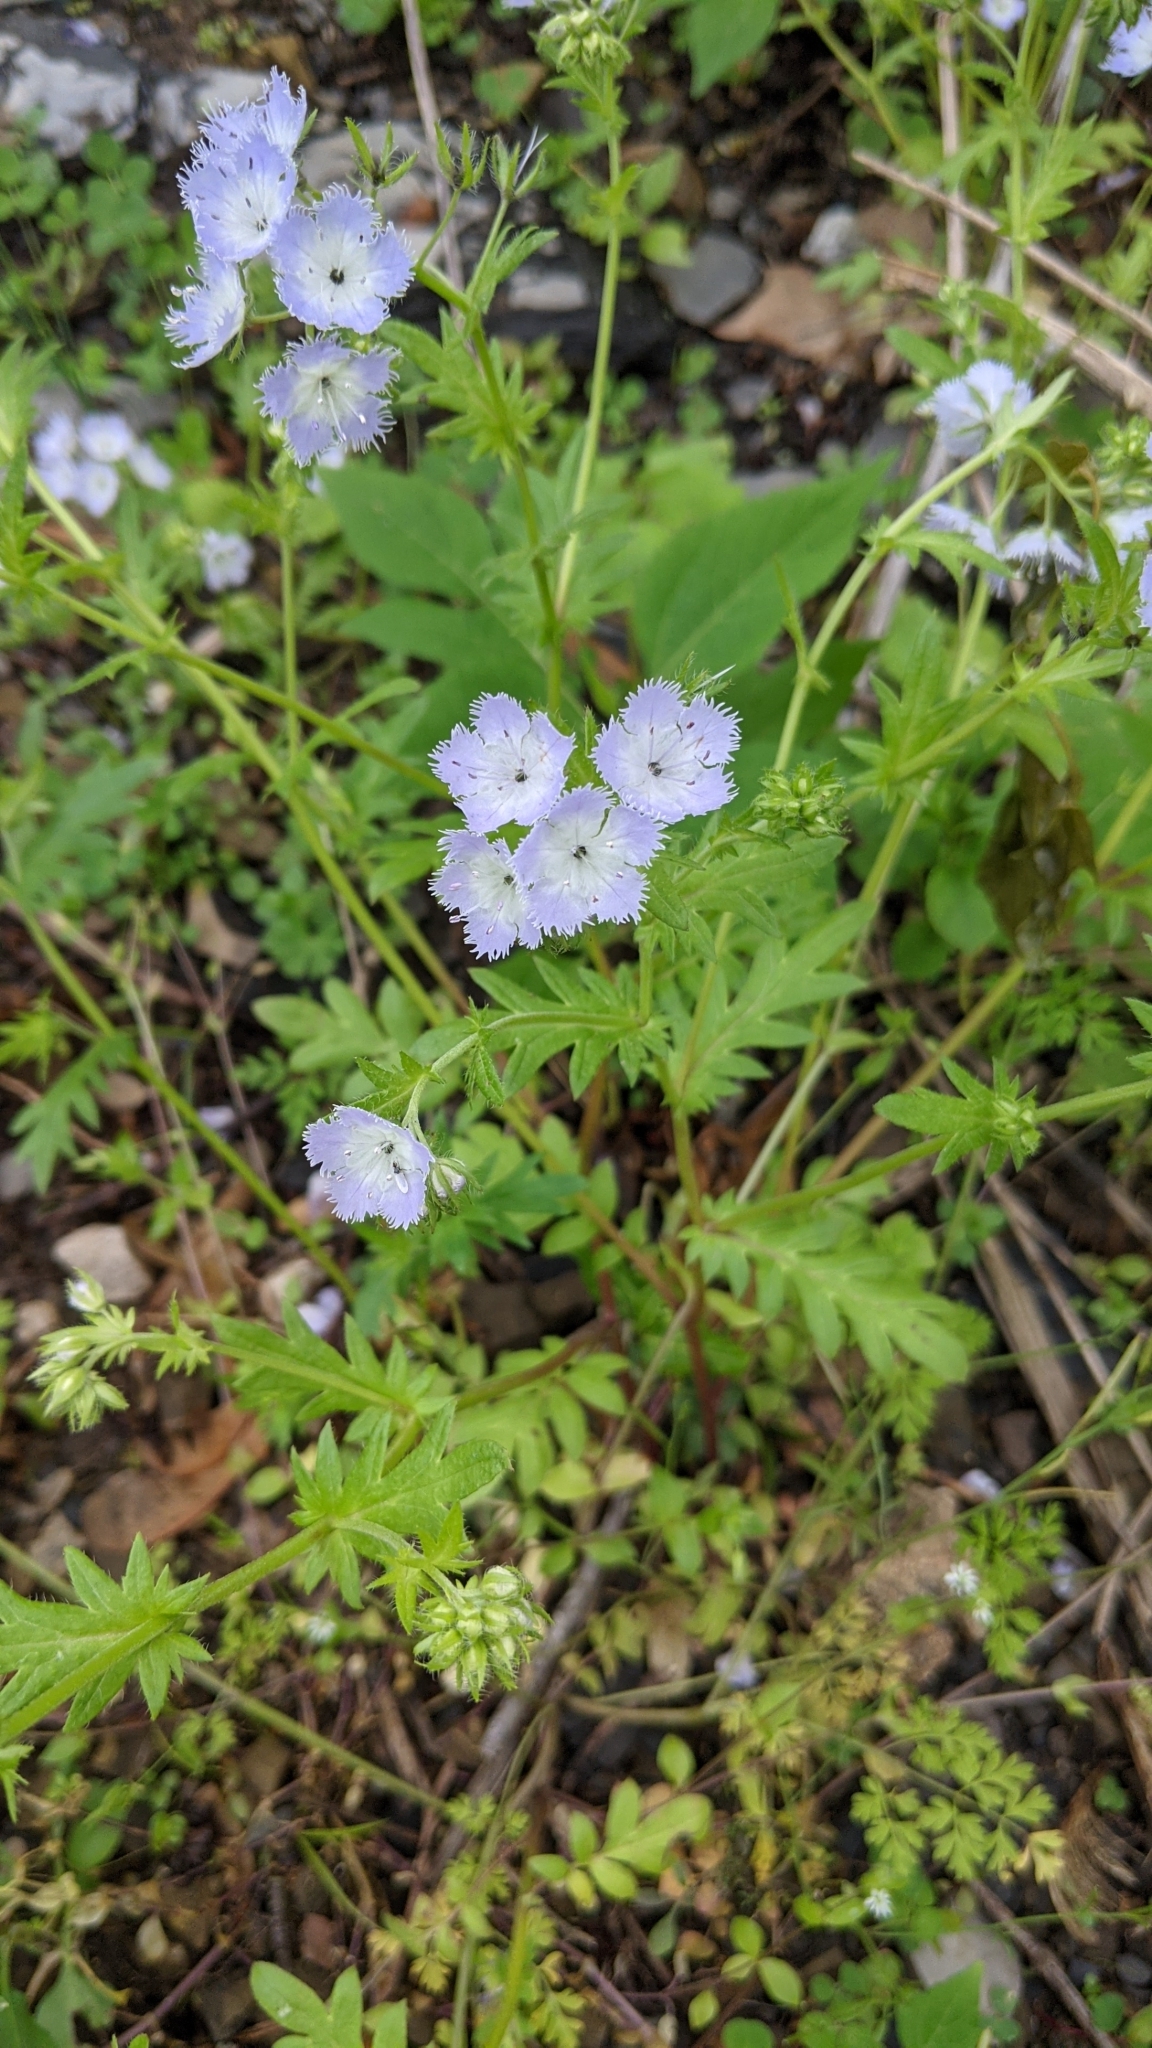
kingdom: Plantae
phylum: Tracheophyta
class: Magnoliopsida
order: Boraginales
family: Hydrophyllaceae
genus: Phacelia
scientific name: Phacelia purshii
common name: Miami-mist
